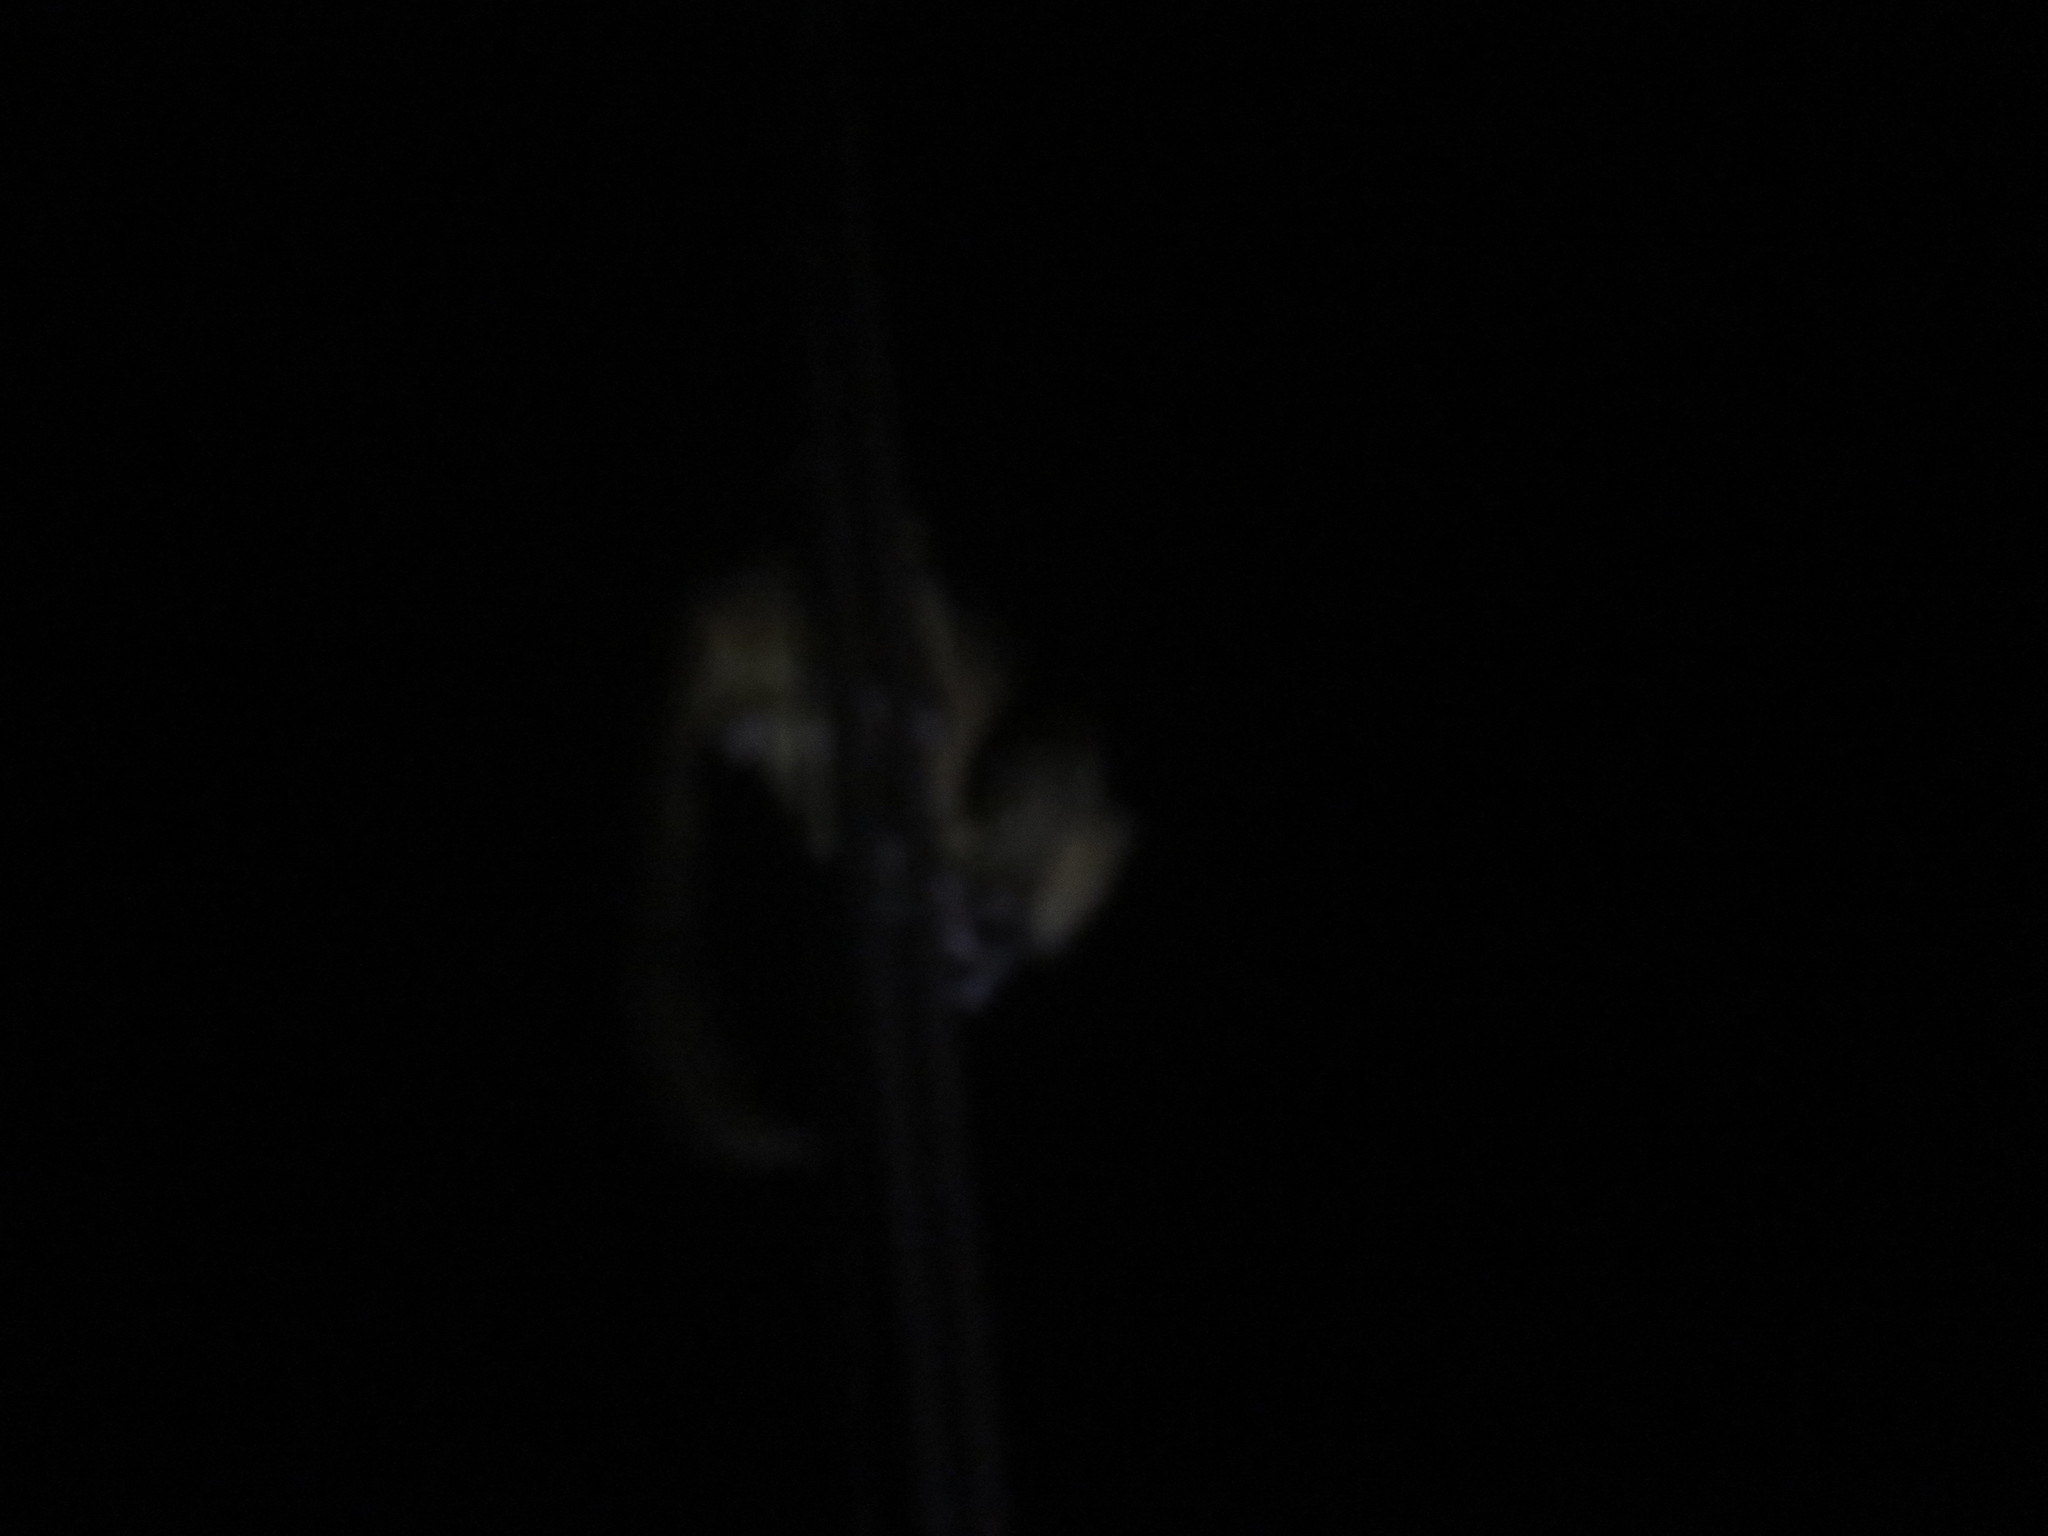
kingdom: Animalia
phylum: Chordata
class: Mammalia
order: Carnivora
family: Procyonidae
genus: Potos
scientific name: Potos flavus
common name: Kinkajou
